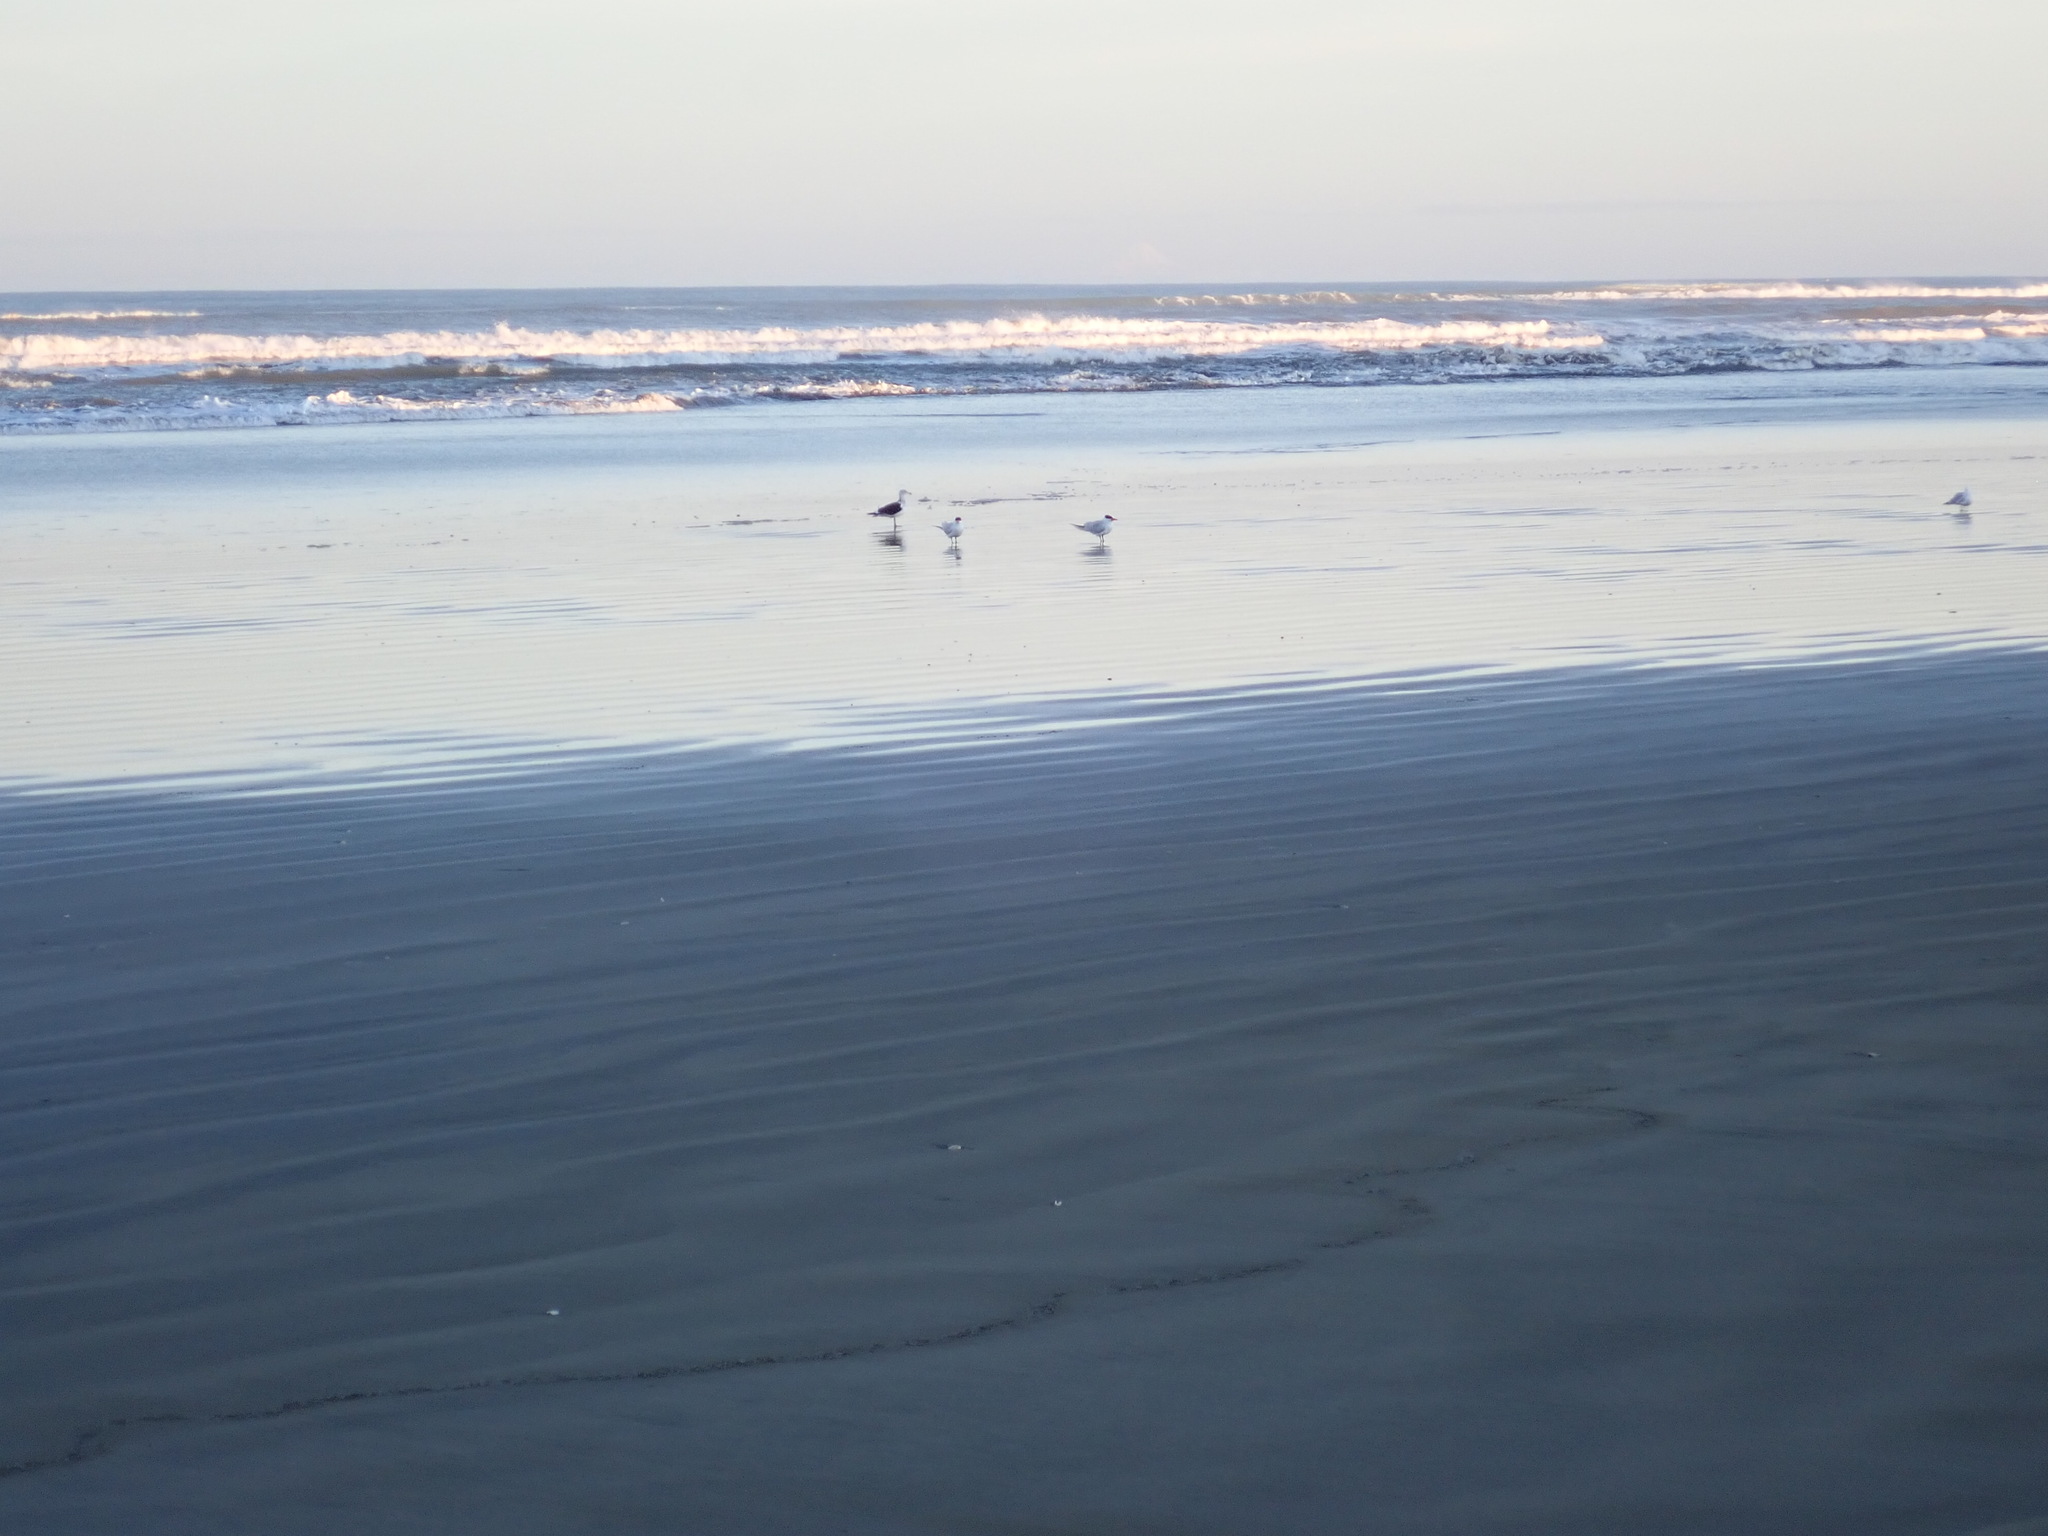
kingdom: Animalia
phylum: Chordata
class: Aves
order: Charadriiformes
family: Laridae
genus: Hydroprogne
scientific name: Hydroprogne caspia
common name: Caspian tern
